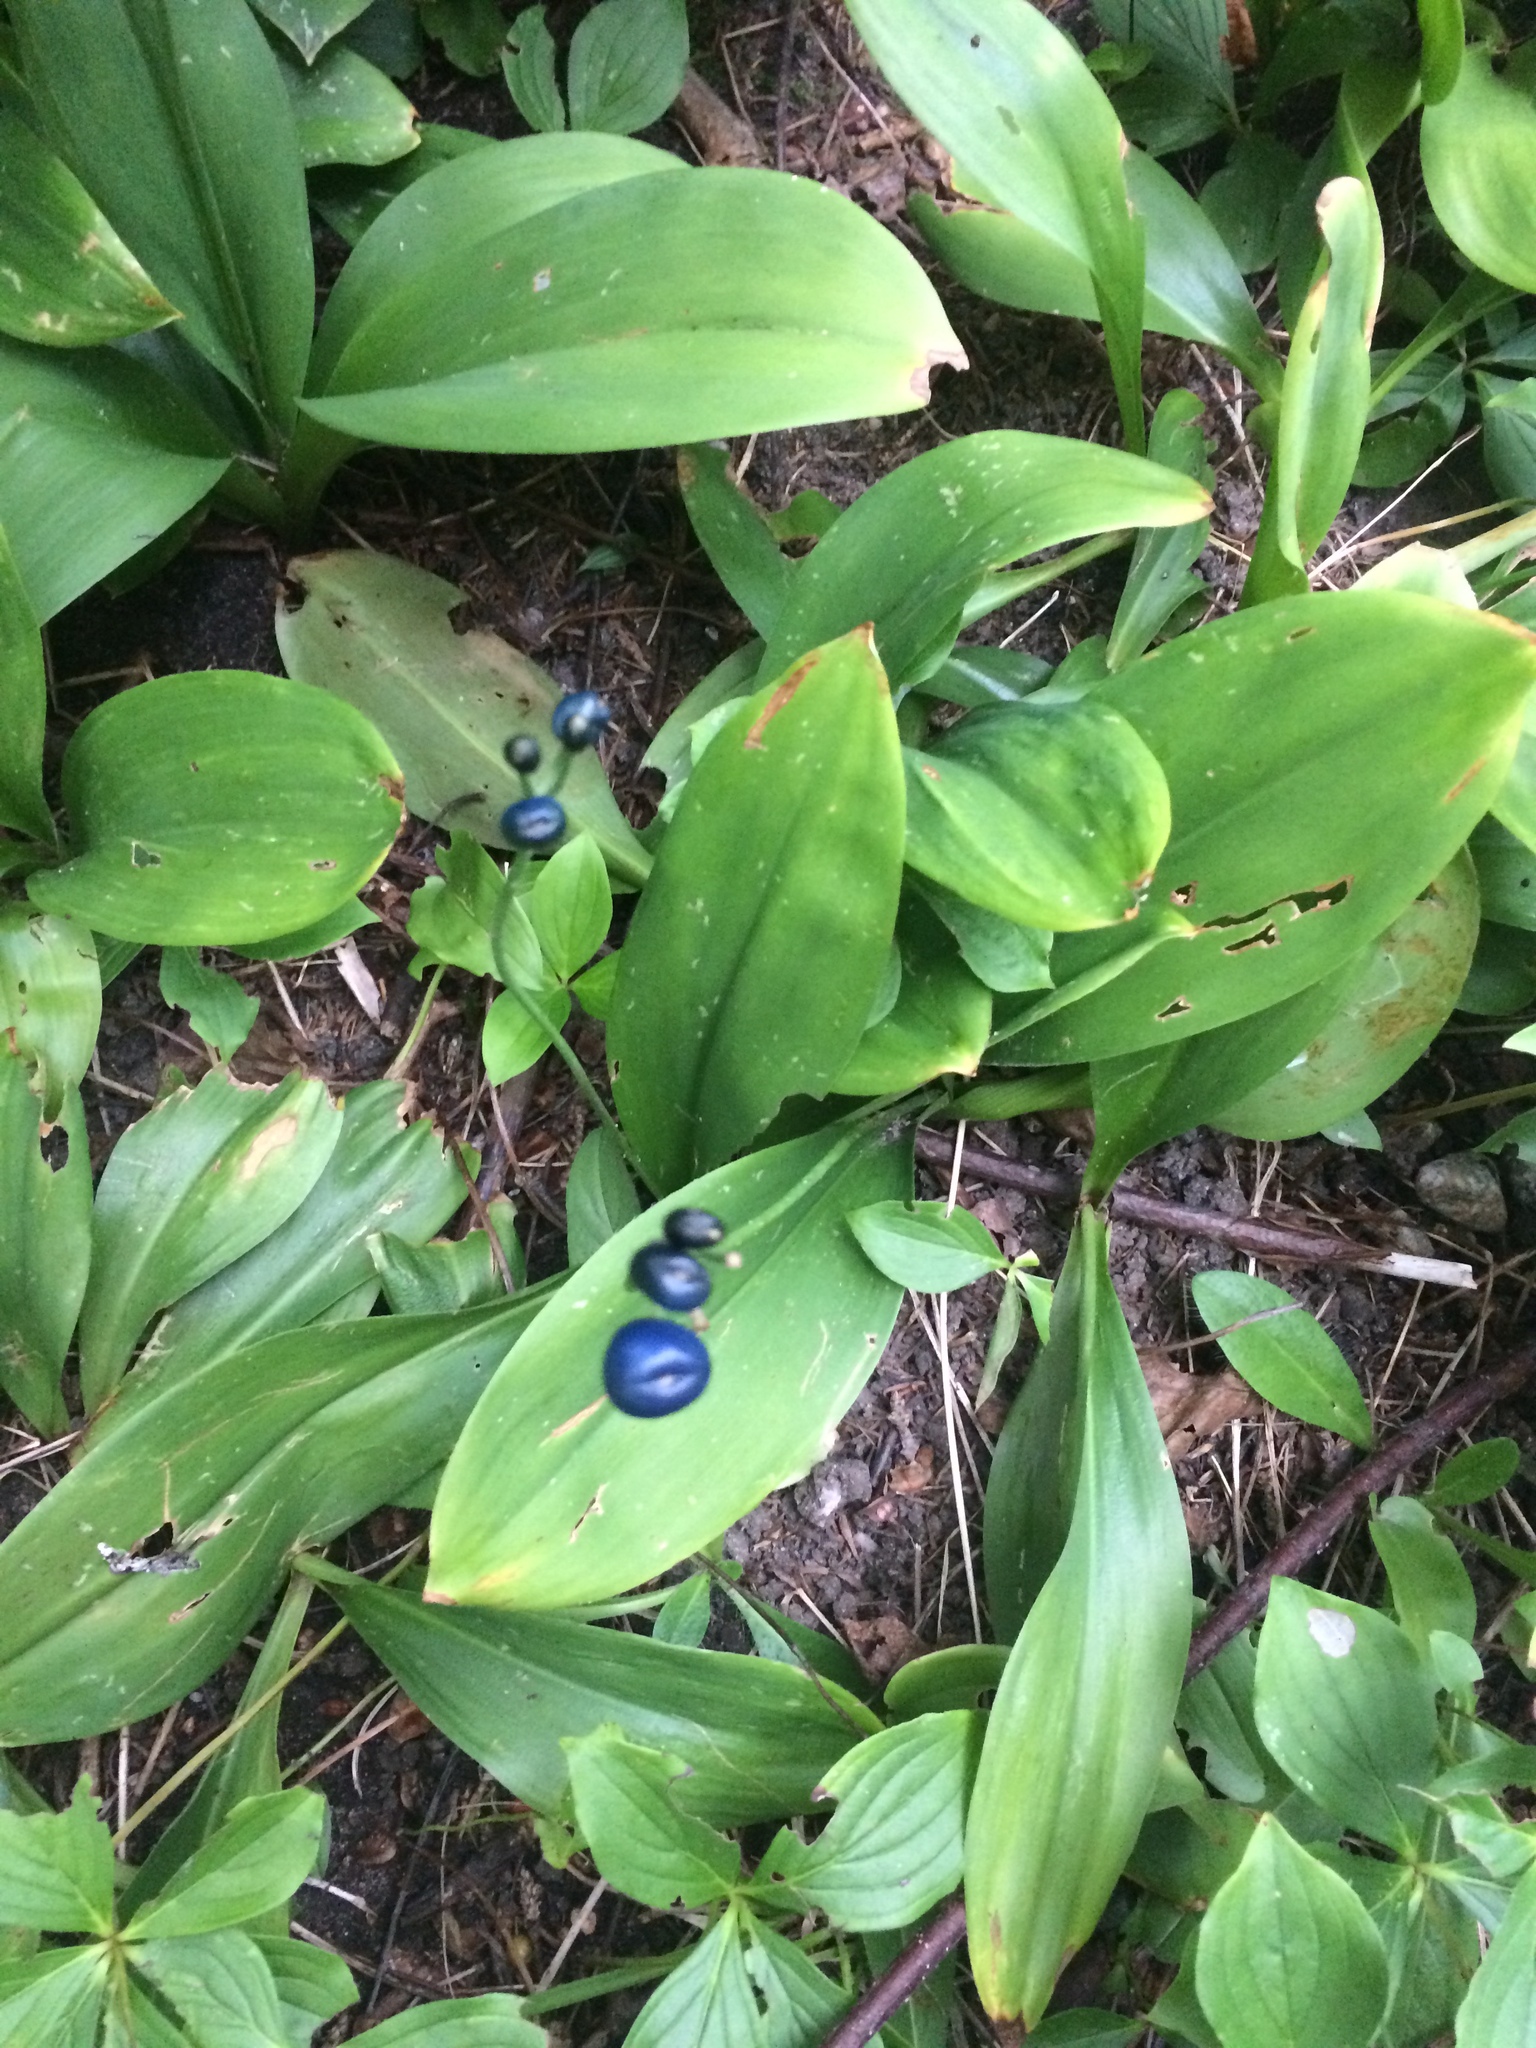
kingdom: Plantae
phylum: Tracheophyta
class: Liliopsida
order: Liliales
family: Liliaceae
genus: Clintonia
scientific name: Clintonia borealis
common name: Yellow clintonia
